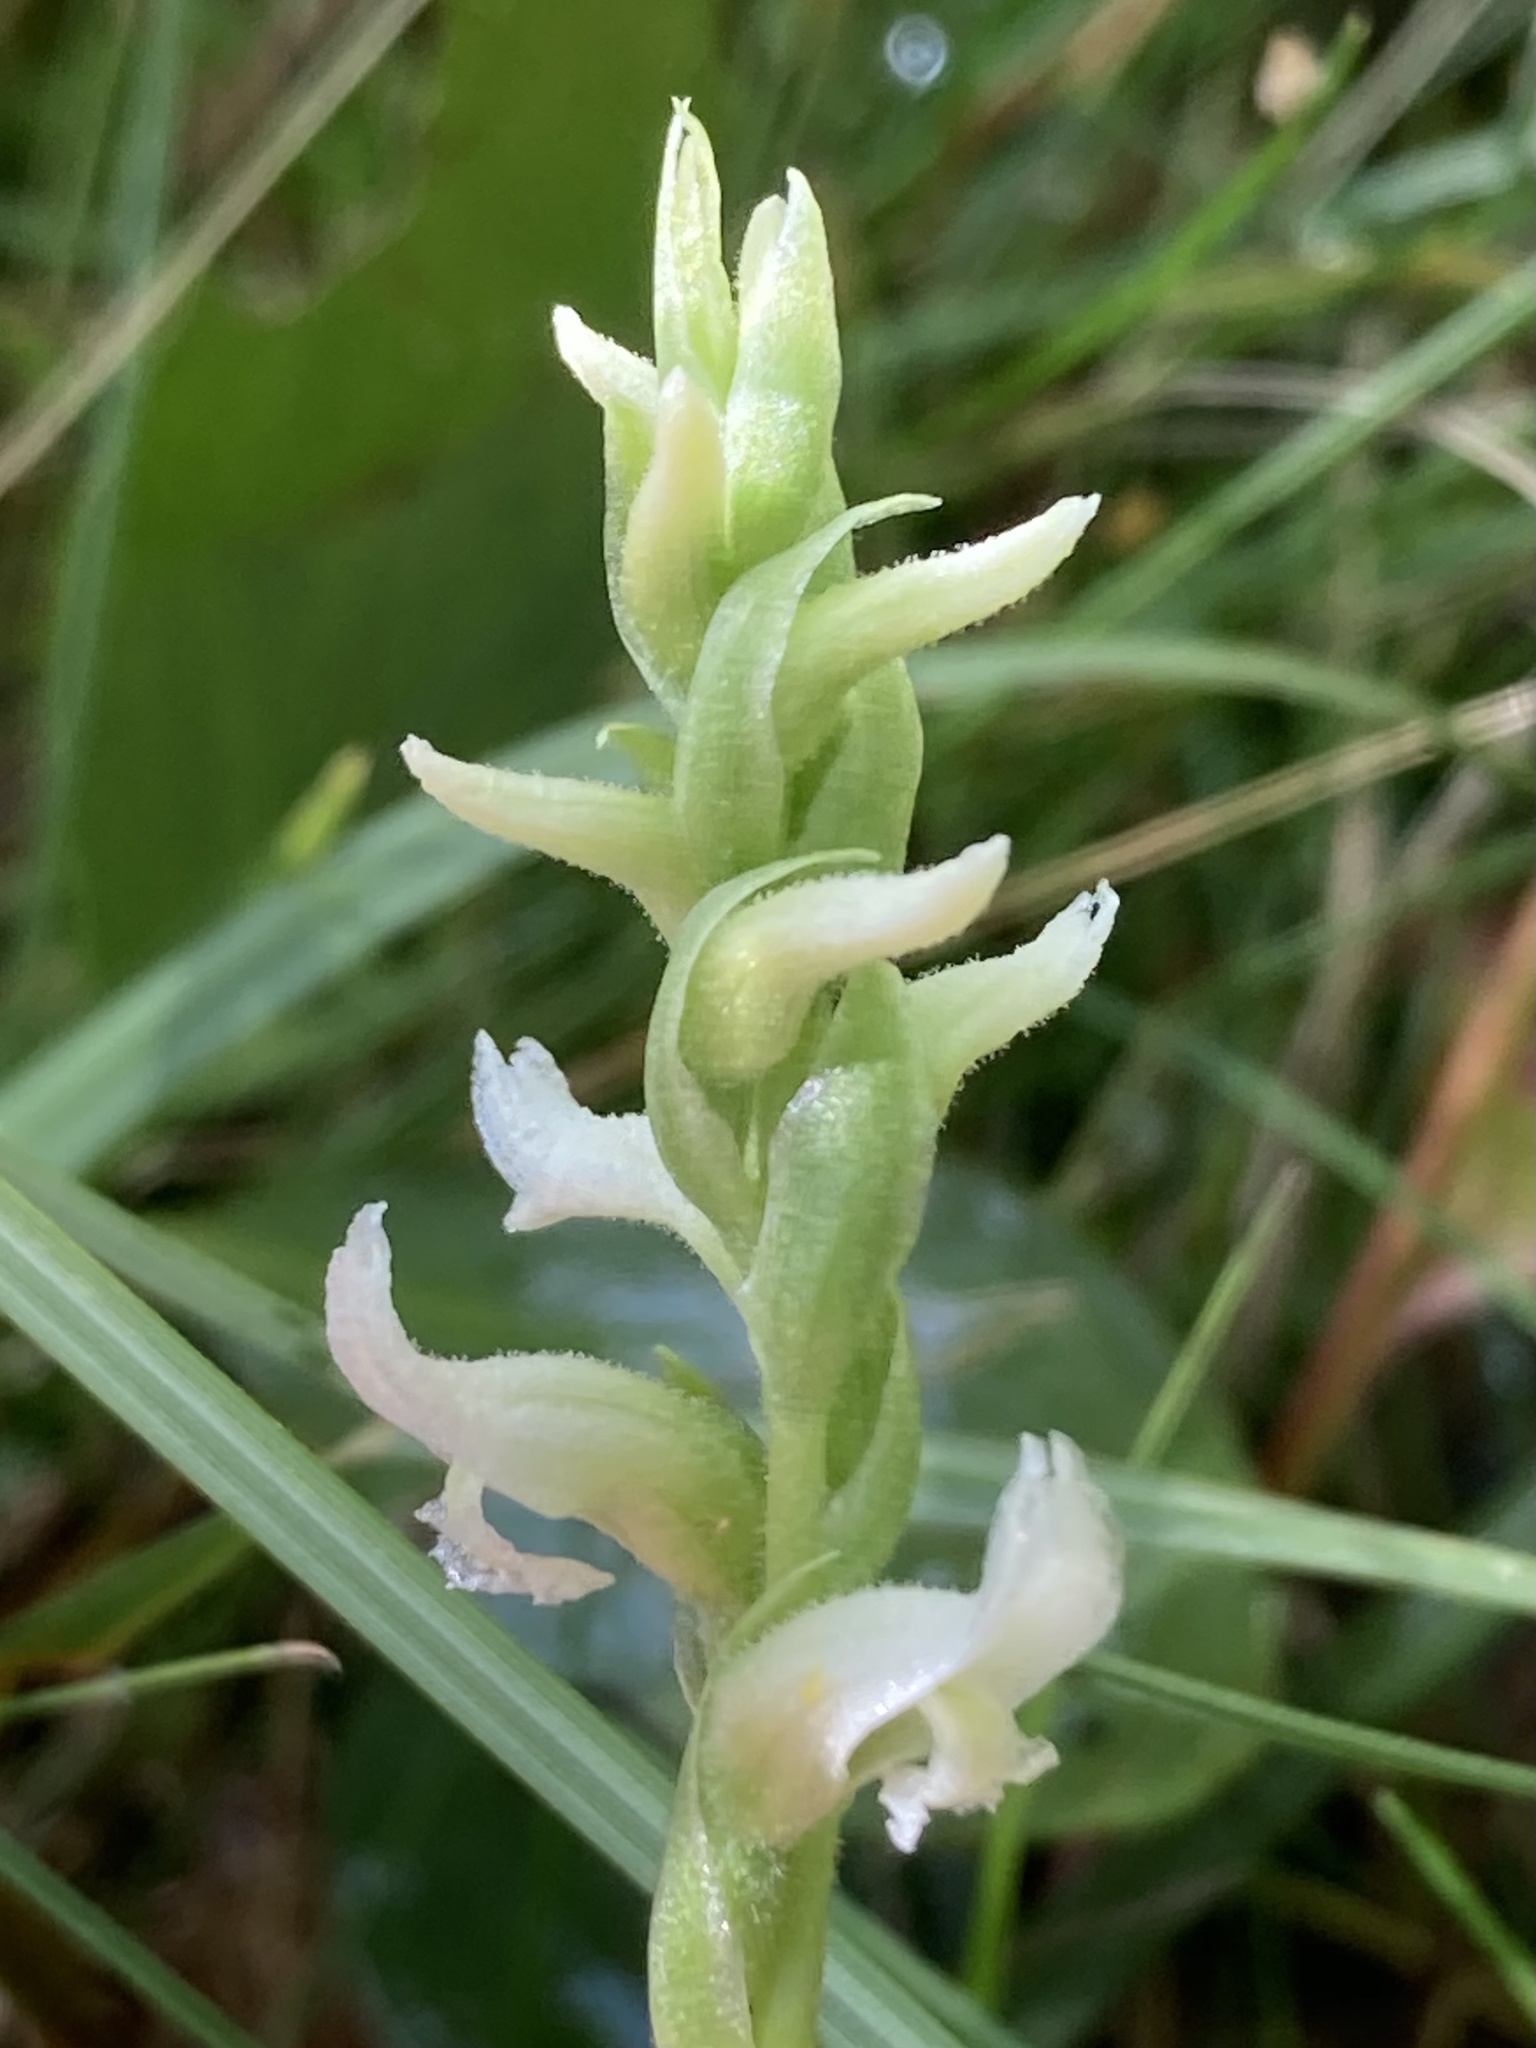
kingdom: Plantae
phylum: Tracheophyta
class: Liliopsida
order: Asparagales
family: Orchidaceae
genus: Spiranthes
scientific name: Spiranthes romanzoffiana
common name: Irish lady's-tresses
